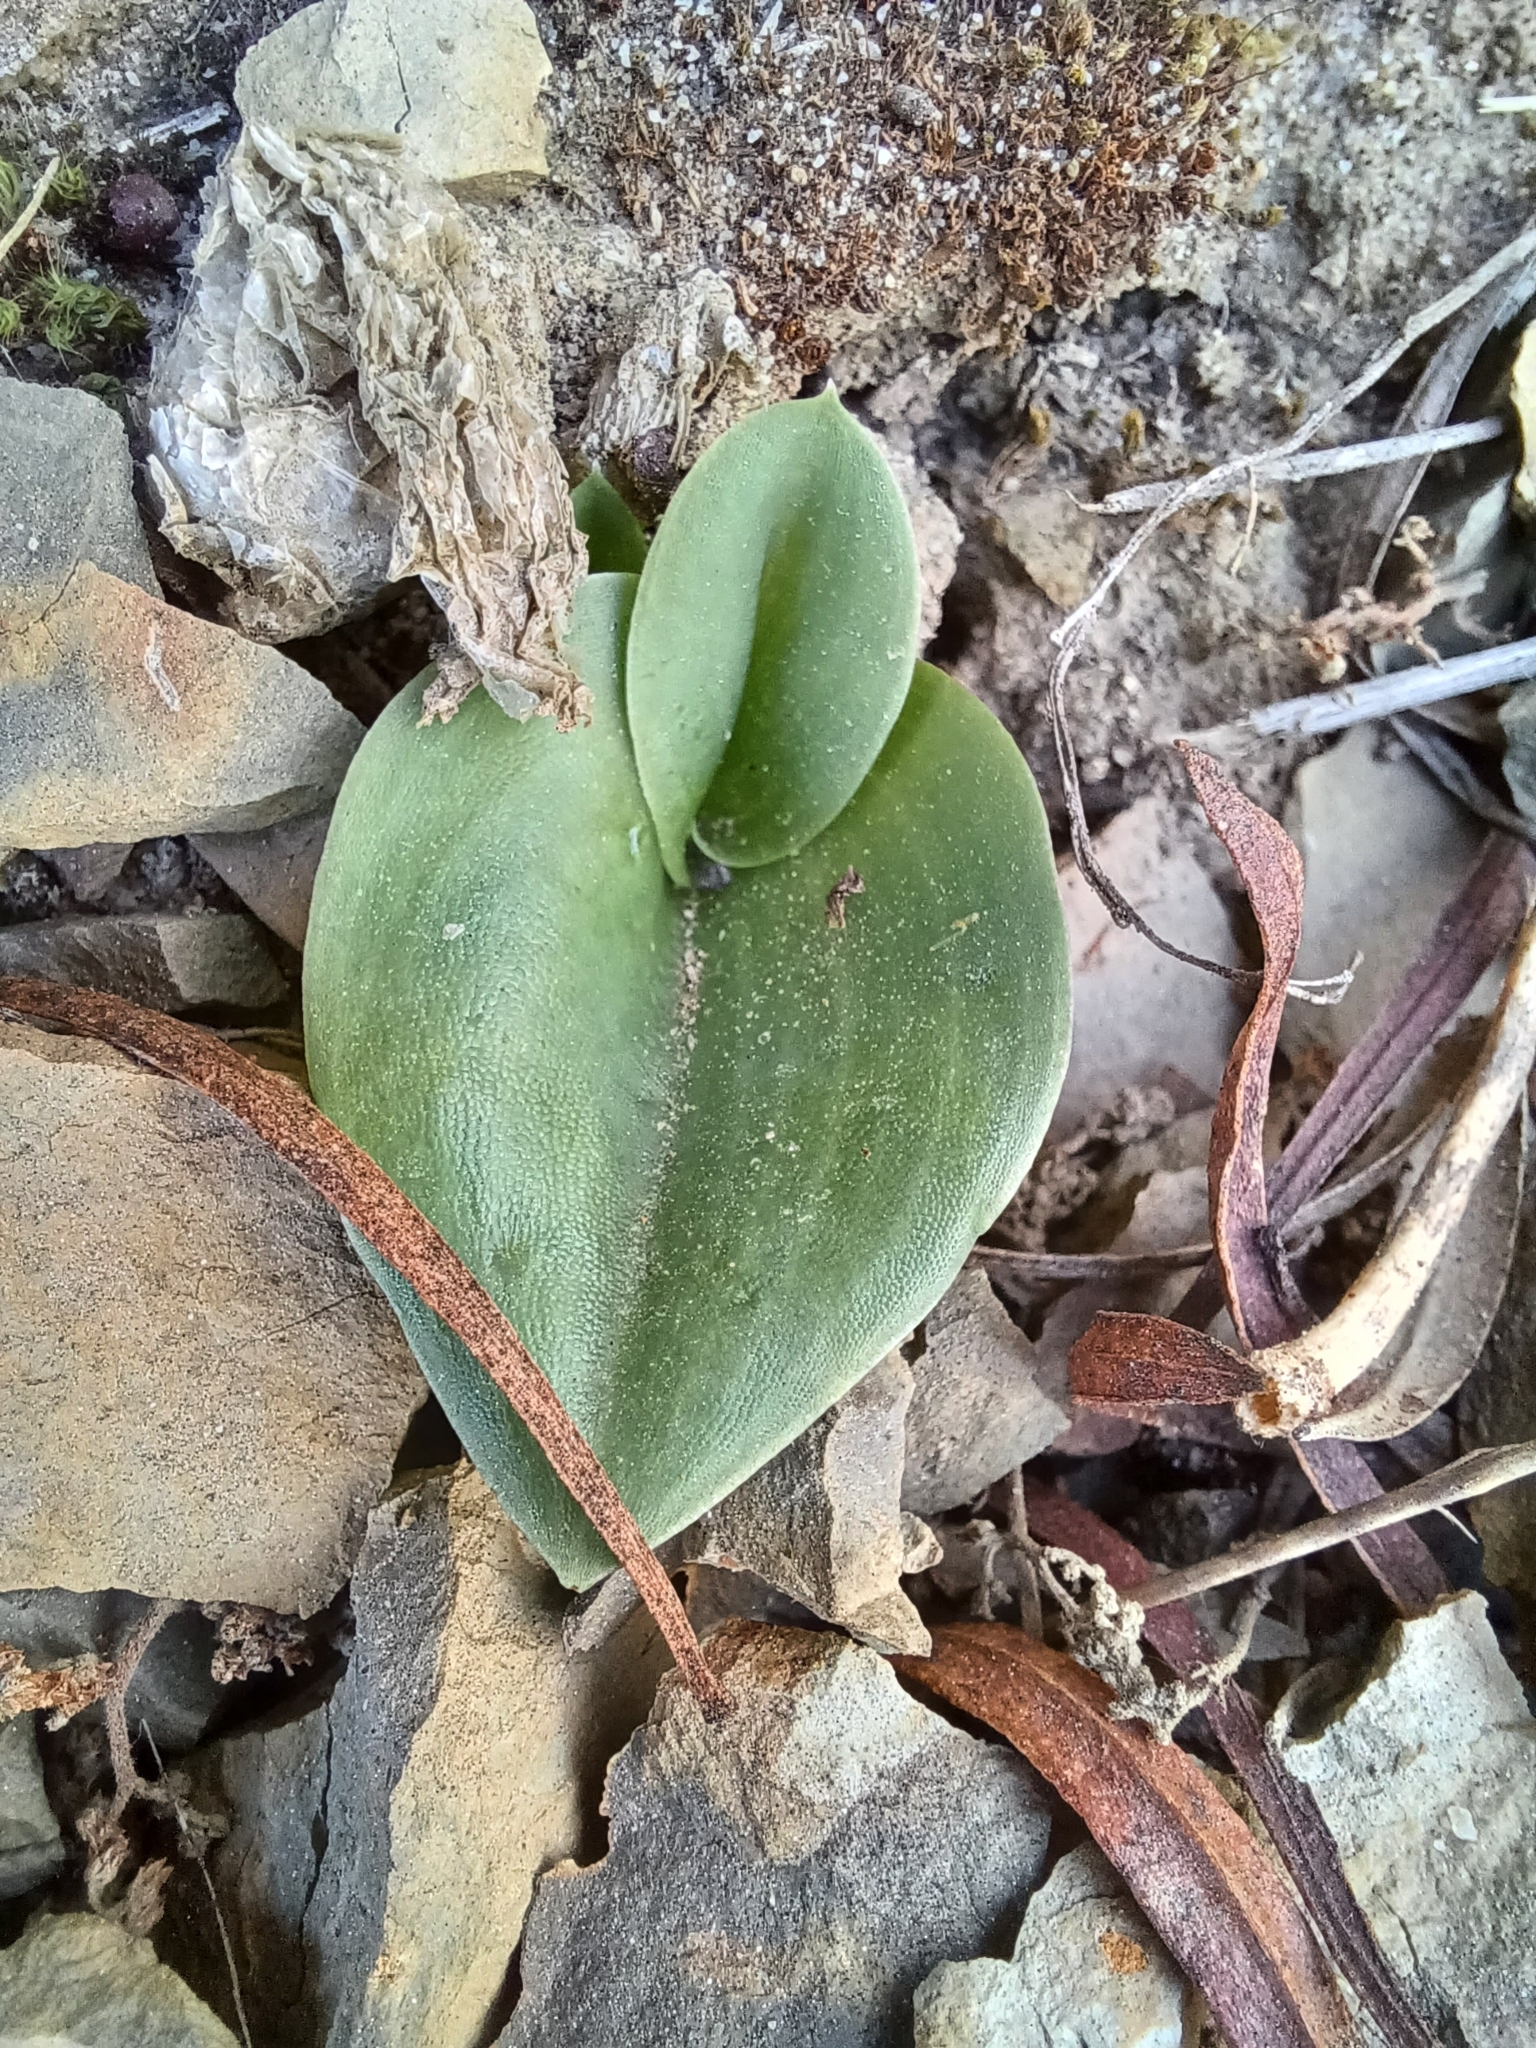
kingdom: Plantae
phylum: Tracheophyta
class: Liliopsida
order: Asparagales
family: Orchidaceae
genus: Holothrix
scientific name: Holothrix secunda
